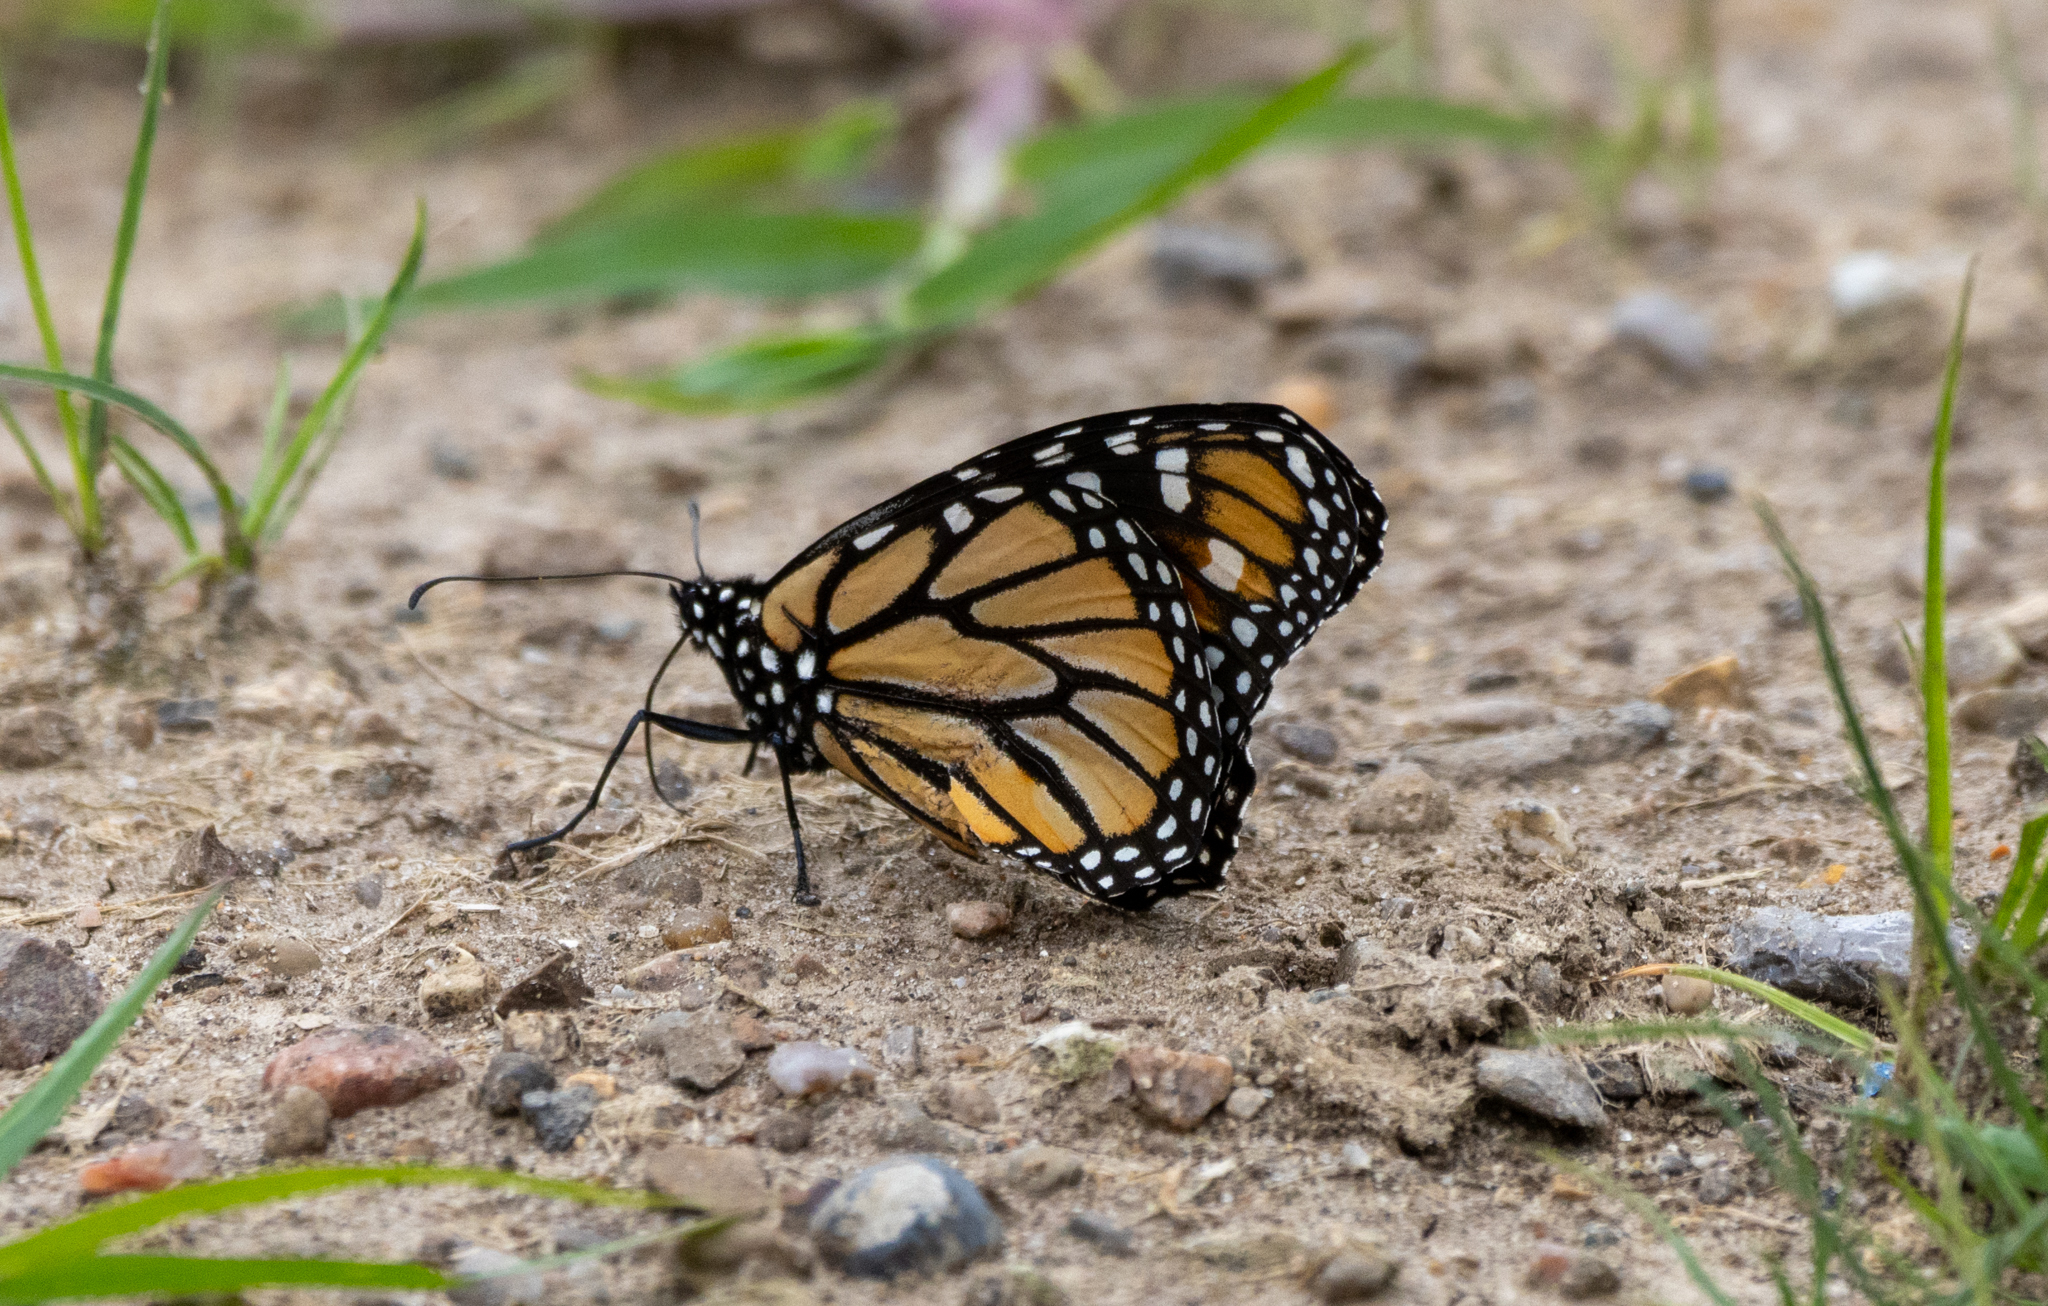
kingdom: Animalia
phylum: Arthropoda
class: Insecta
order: Lepidoptera
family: Nymphalidae
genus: Danaus
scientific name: Danaus plexippus
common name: Monarch
